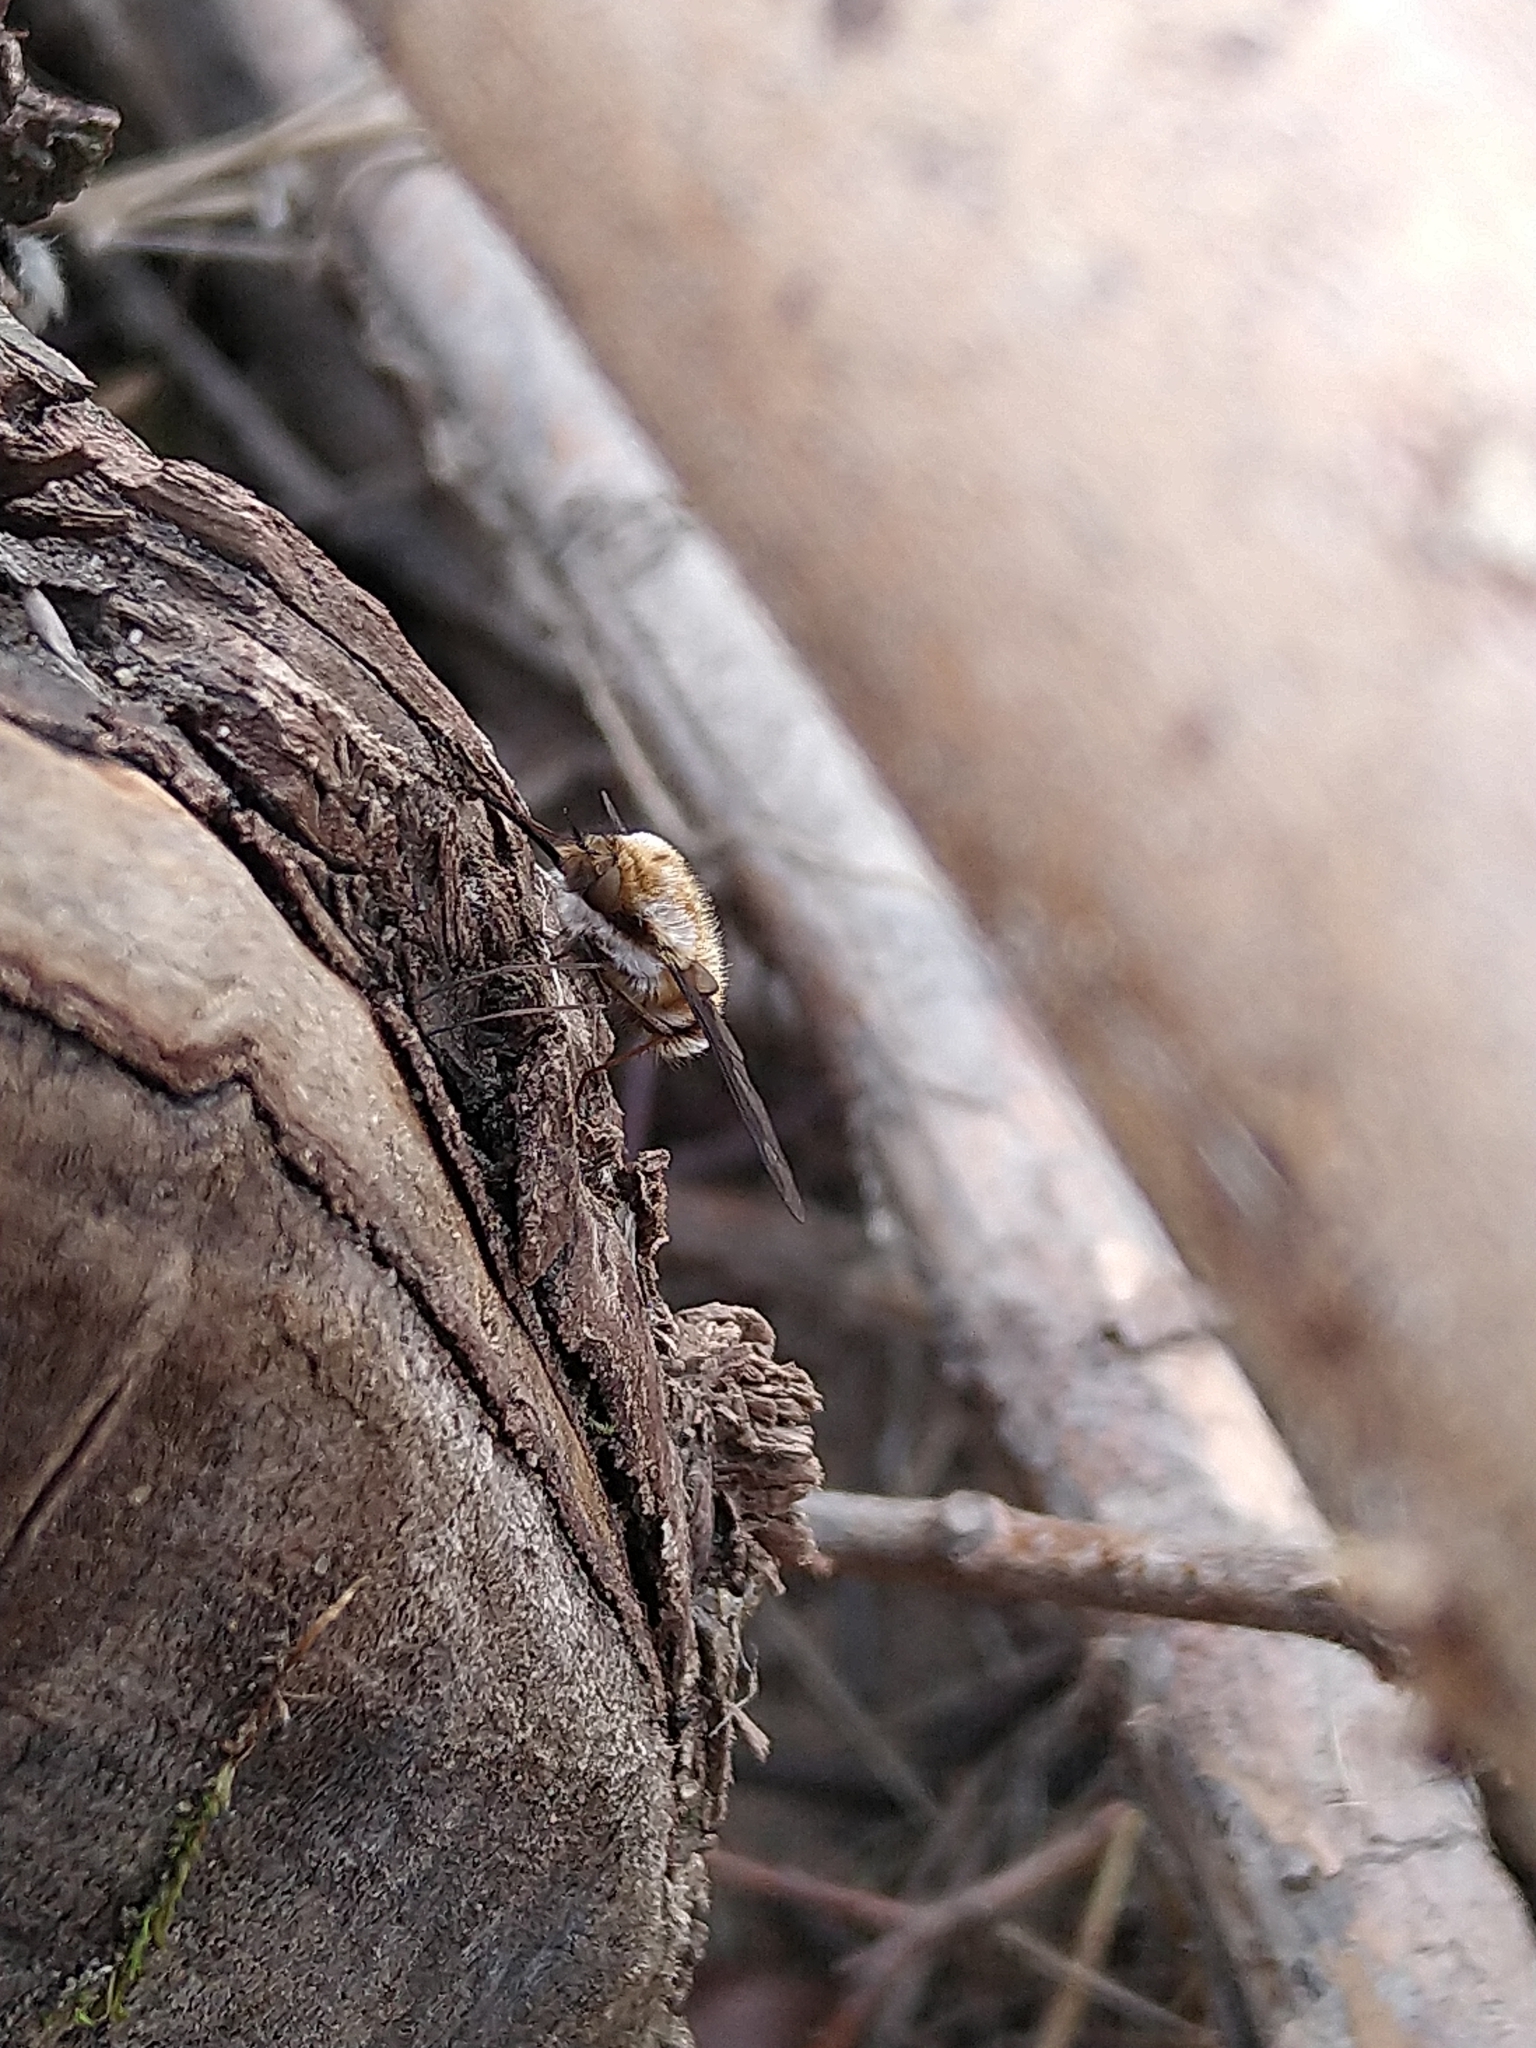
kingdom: Animalia
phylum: Arthropoda
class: Insecta
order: Diptera
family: Bombyliidae
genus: Bombylius
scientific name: Bombylius major
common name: Bee fly
